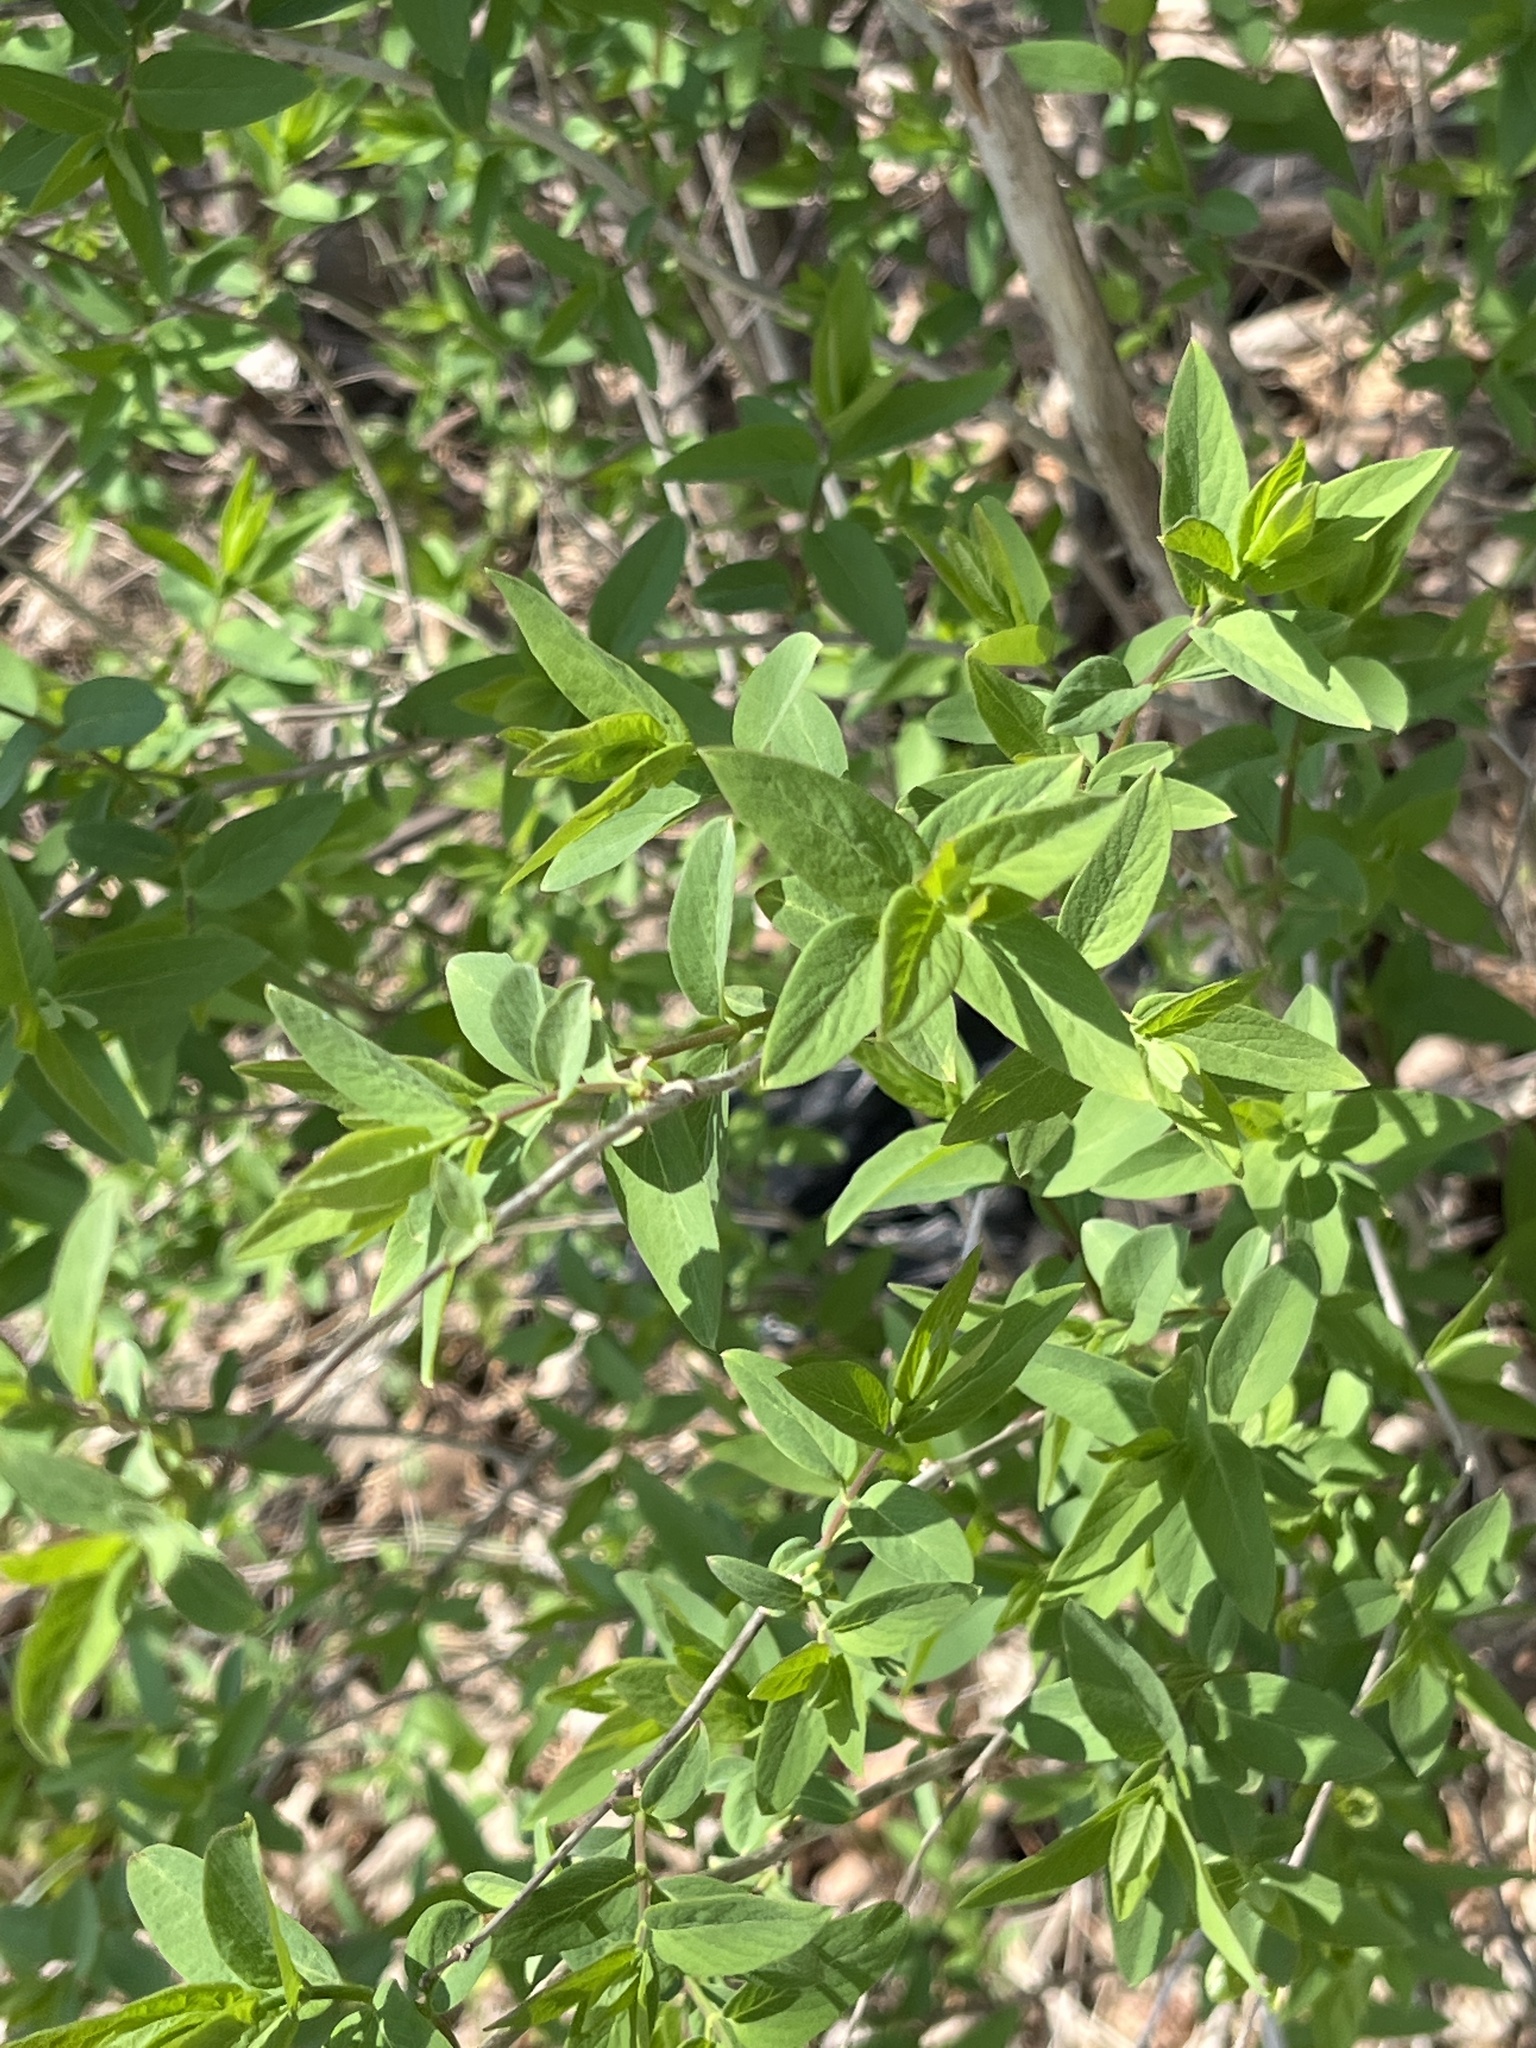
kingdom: Plantae
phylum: Tracheophyta
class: Magnoliopsida
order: Dipsacales
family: Caprifoliaceae
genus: Lonicera
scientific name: Lonicera maackii
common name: Amur honeysuckle
